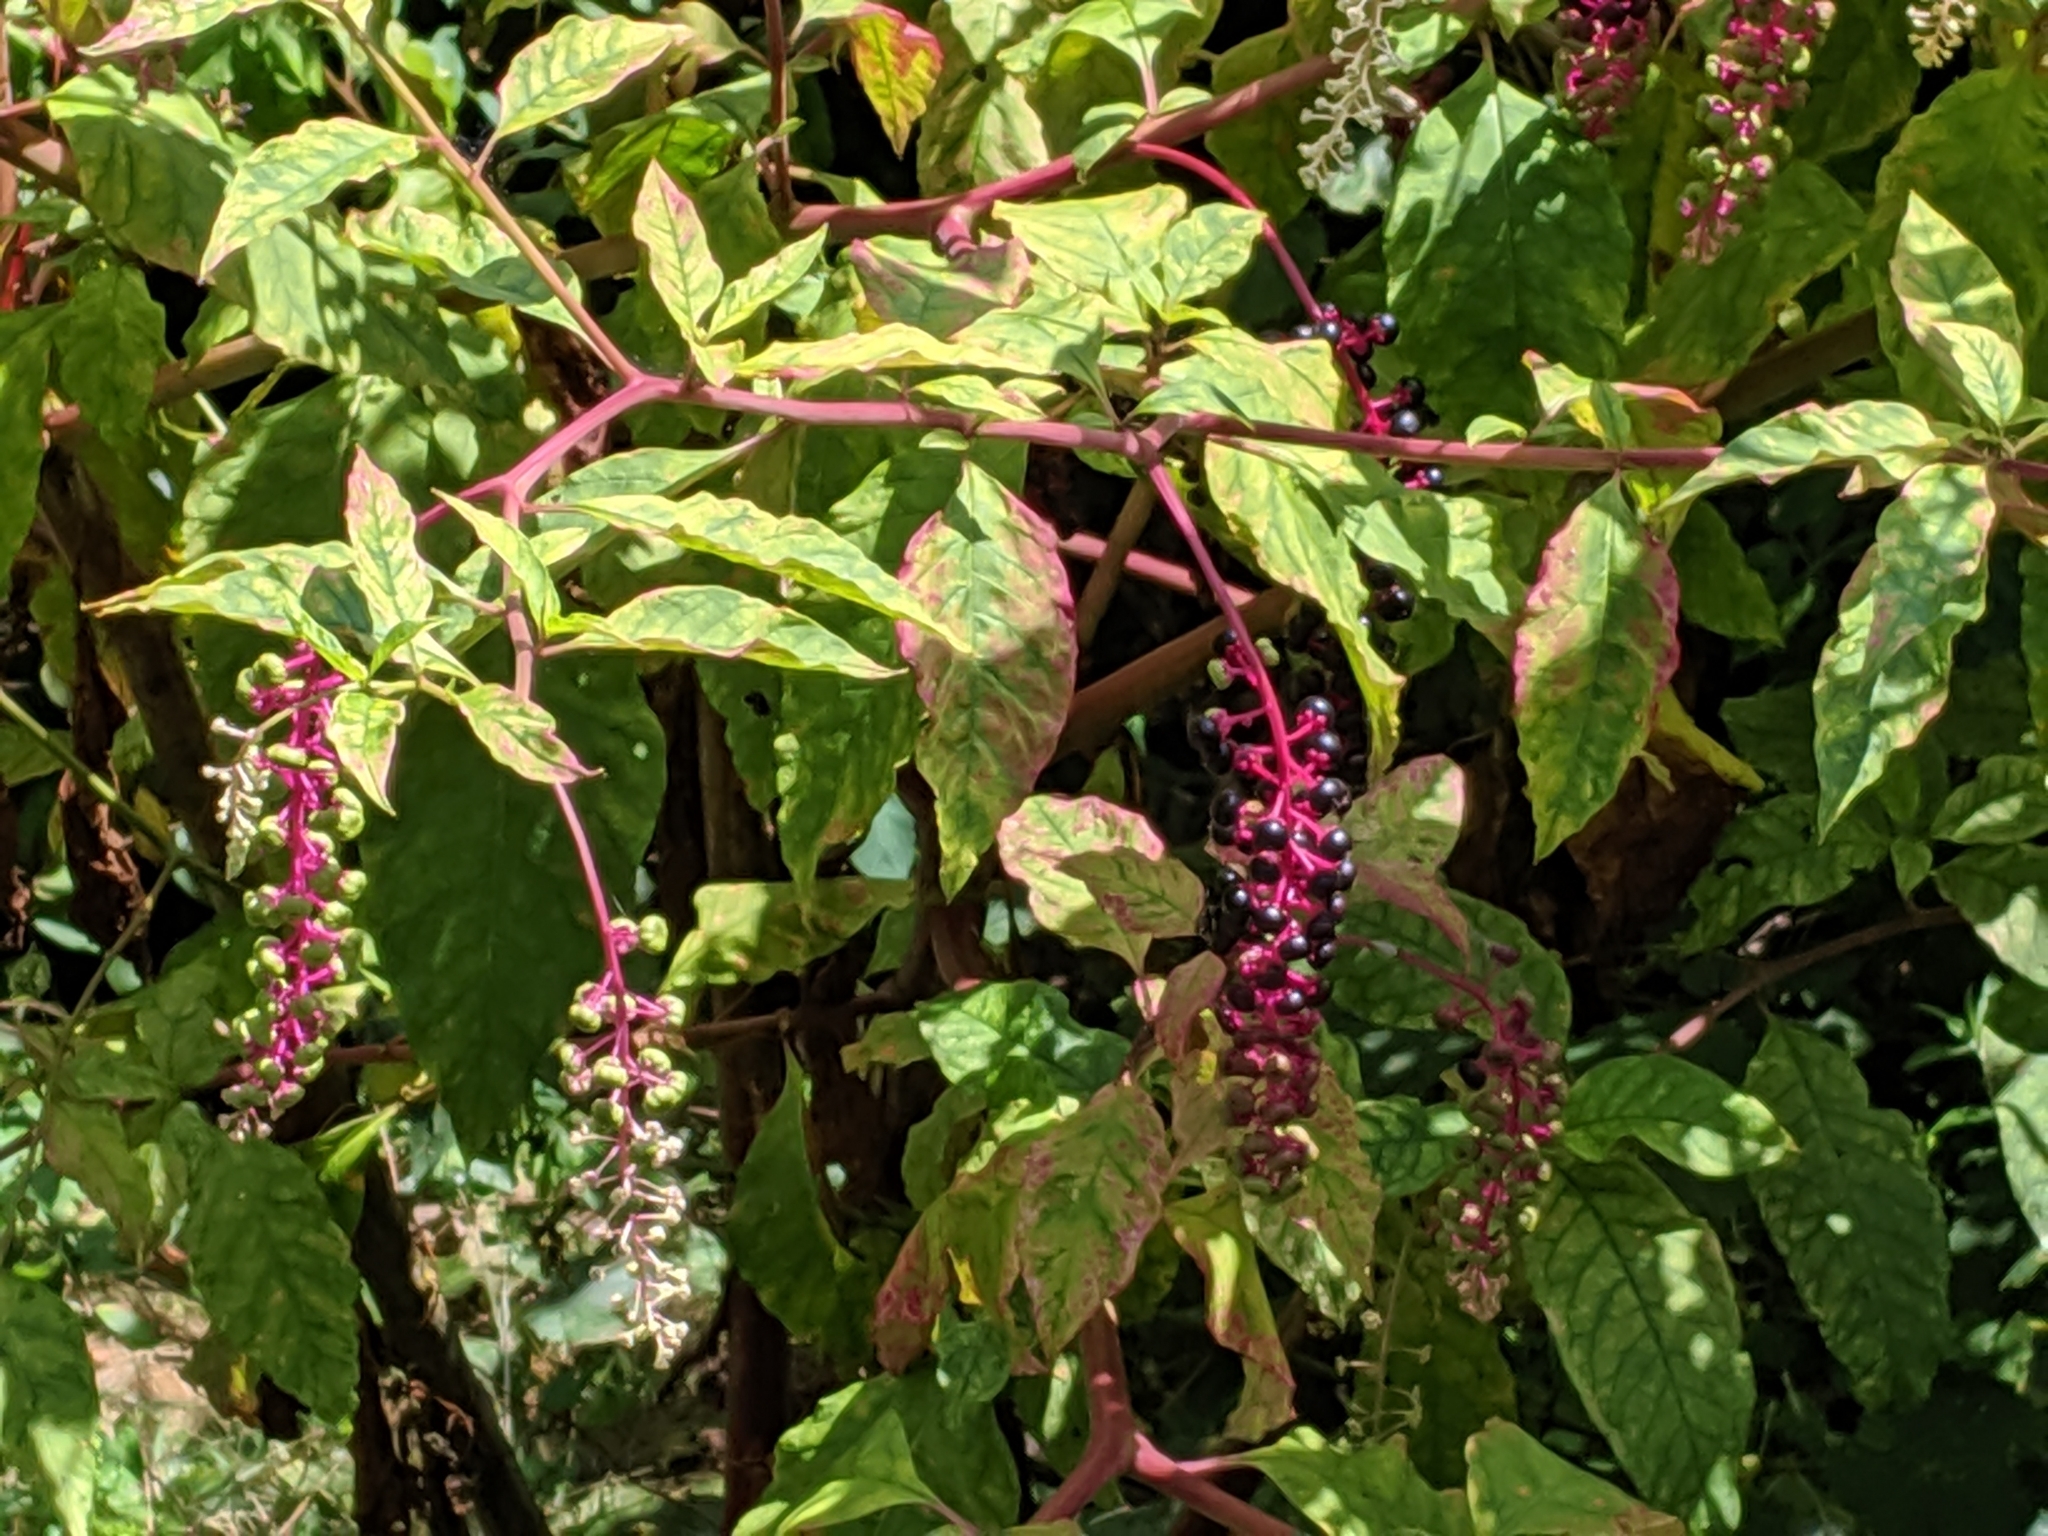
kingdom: Plantae
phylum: Tracheophyta
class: Magnoliopsida
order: Caryophyllales
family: Phytolaccaceae
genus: Phytolacca
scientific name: Phytolacca americana
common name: American pokeweed
